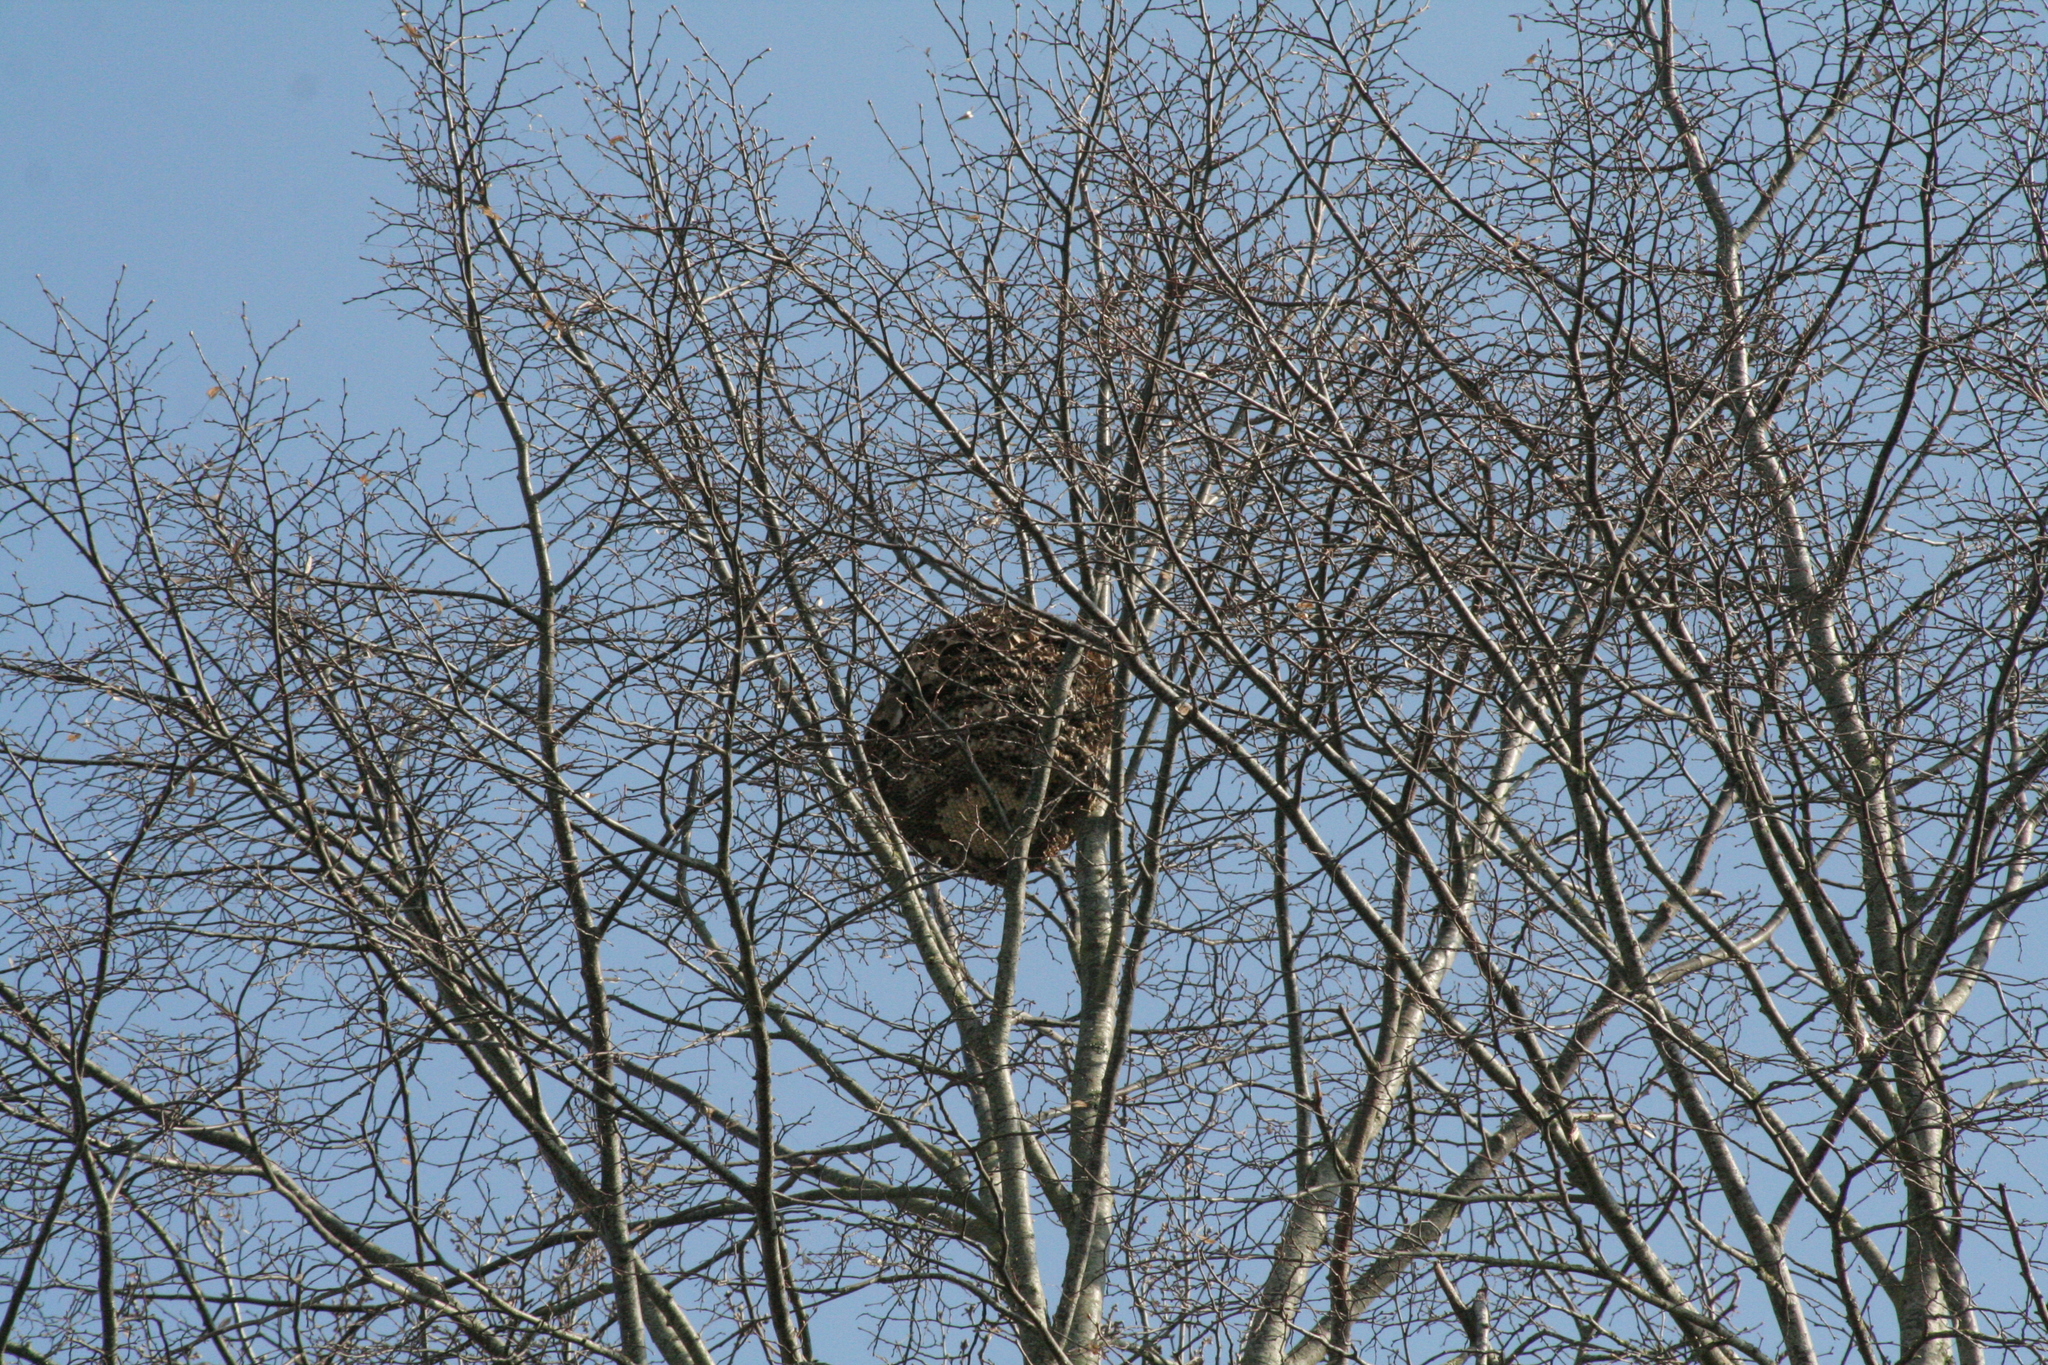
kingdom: Animalia
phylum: Arthropoda
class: Insecta
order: Hymenoptera
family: Vespidae
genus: Vespa
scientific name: Vespa velutina
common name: Asian hornet
